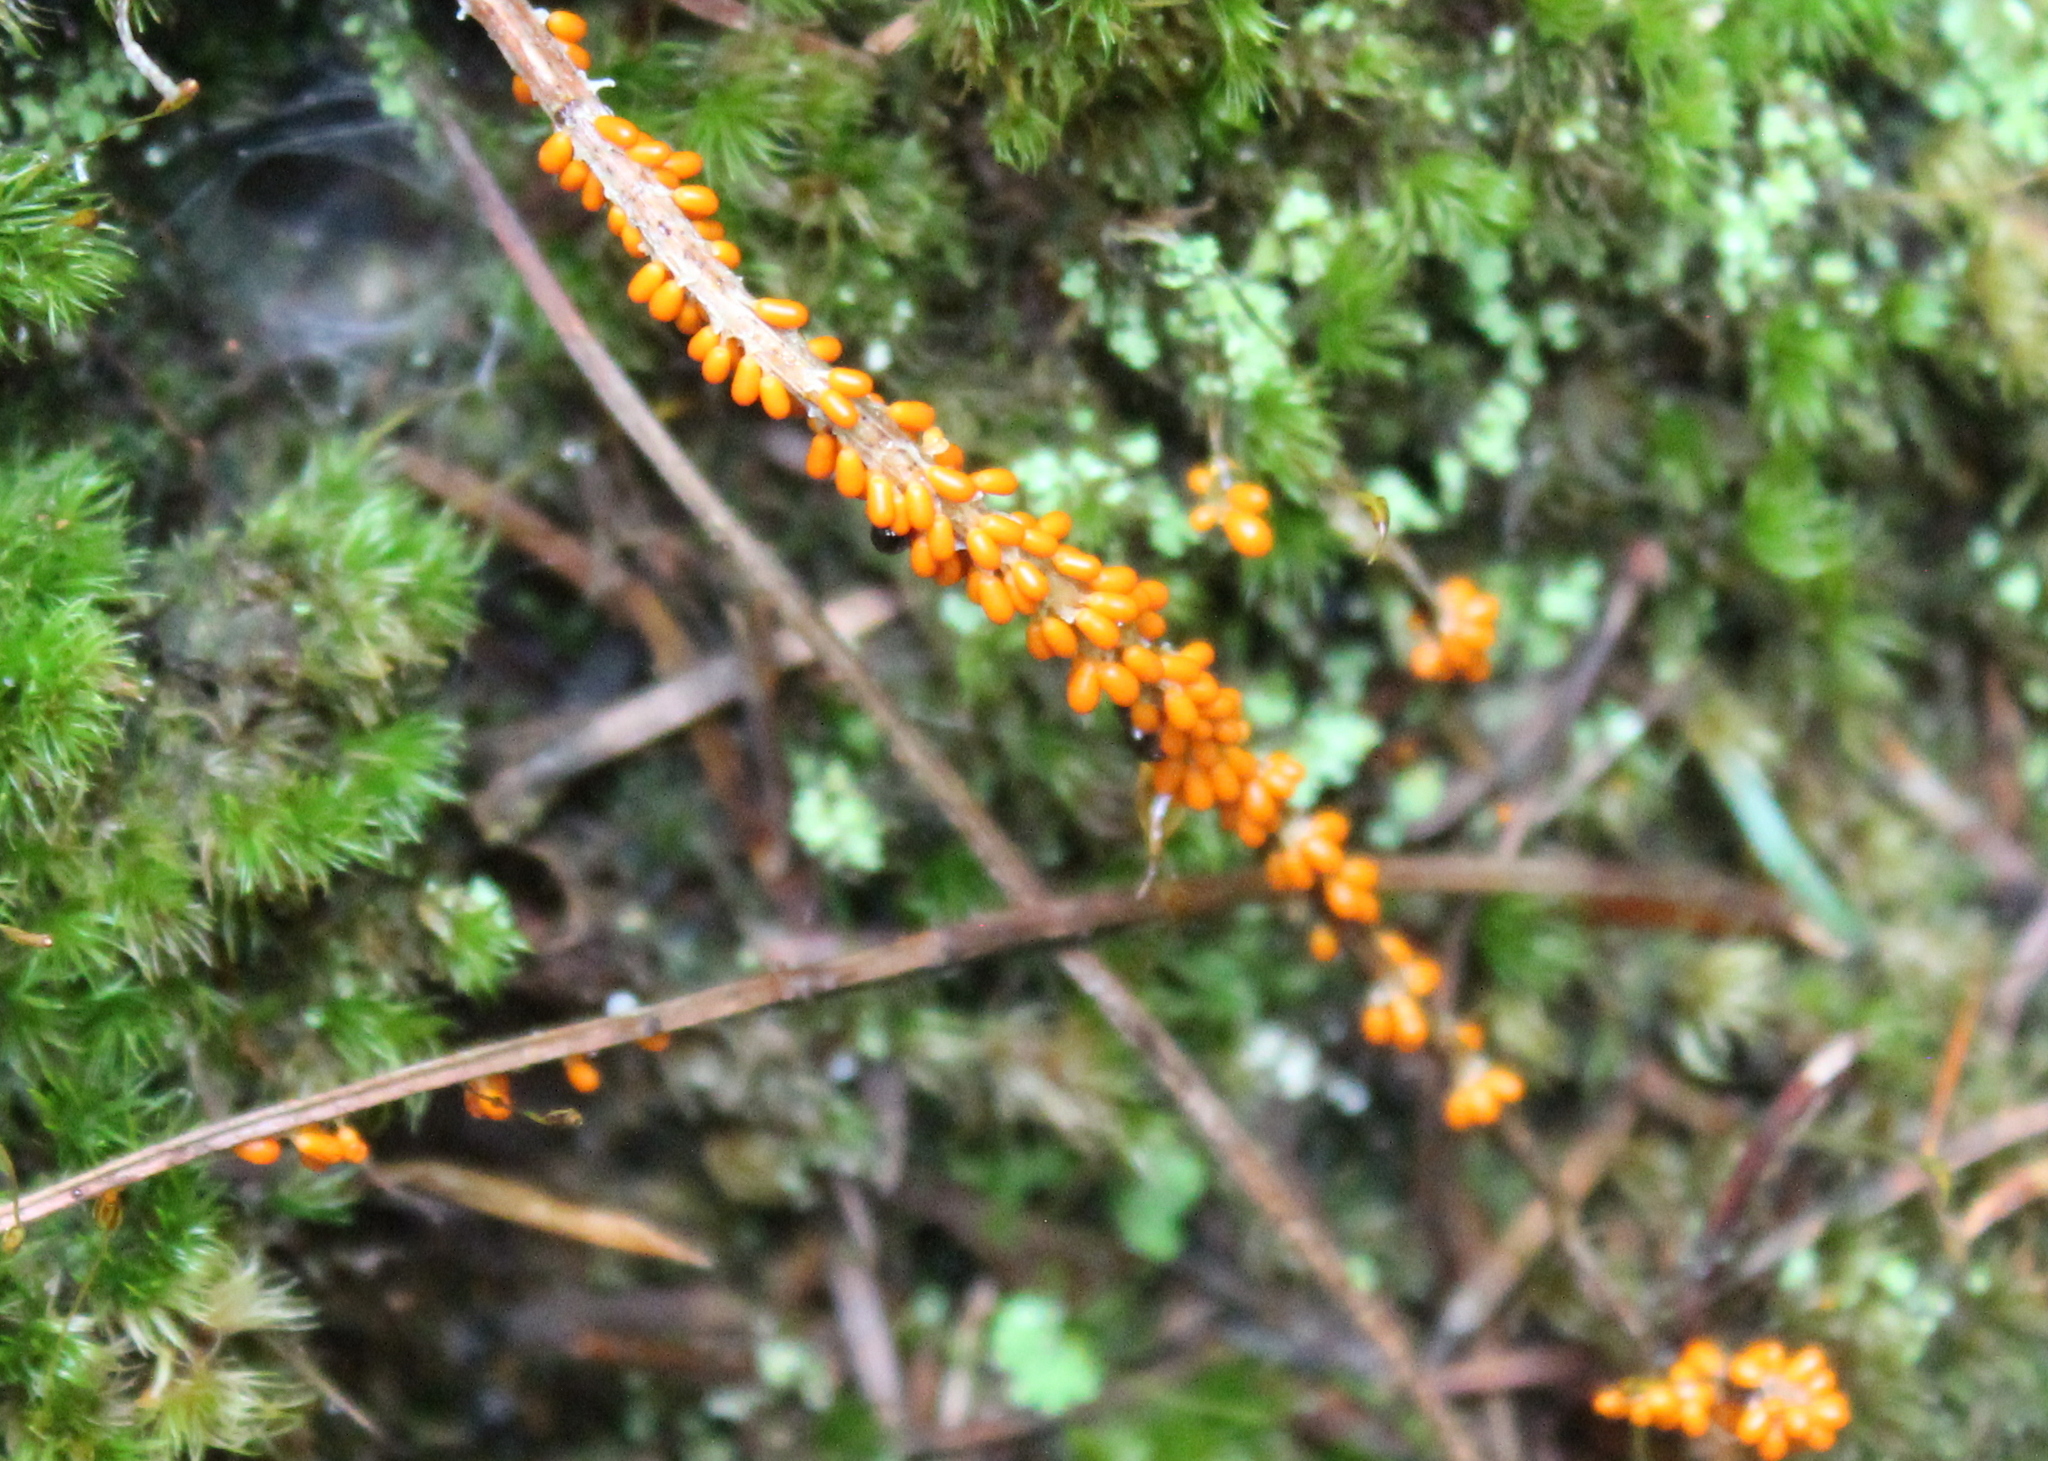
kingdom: Protozoa
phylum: Mycetozoa
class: Myxomycetes
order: Physarales
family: Physaraceae
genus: Leocarpus
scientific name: Leocarpus fragilis
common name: Insect-egg slime
